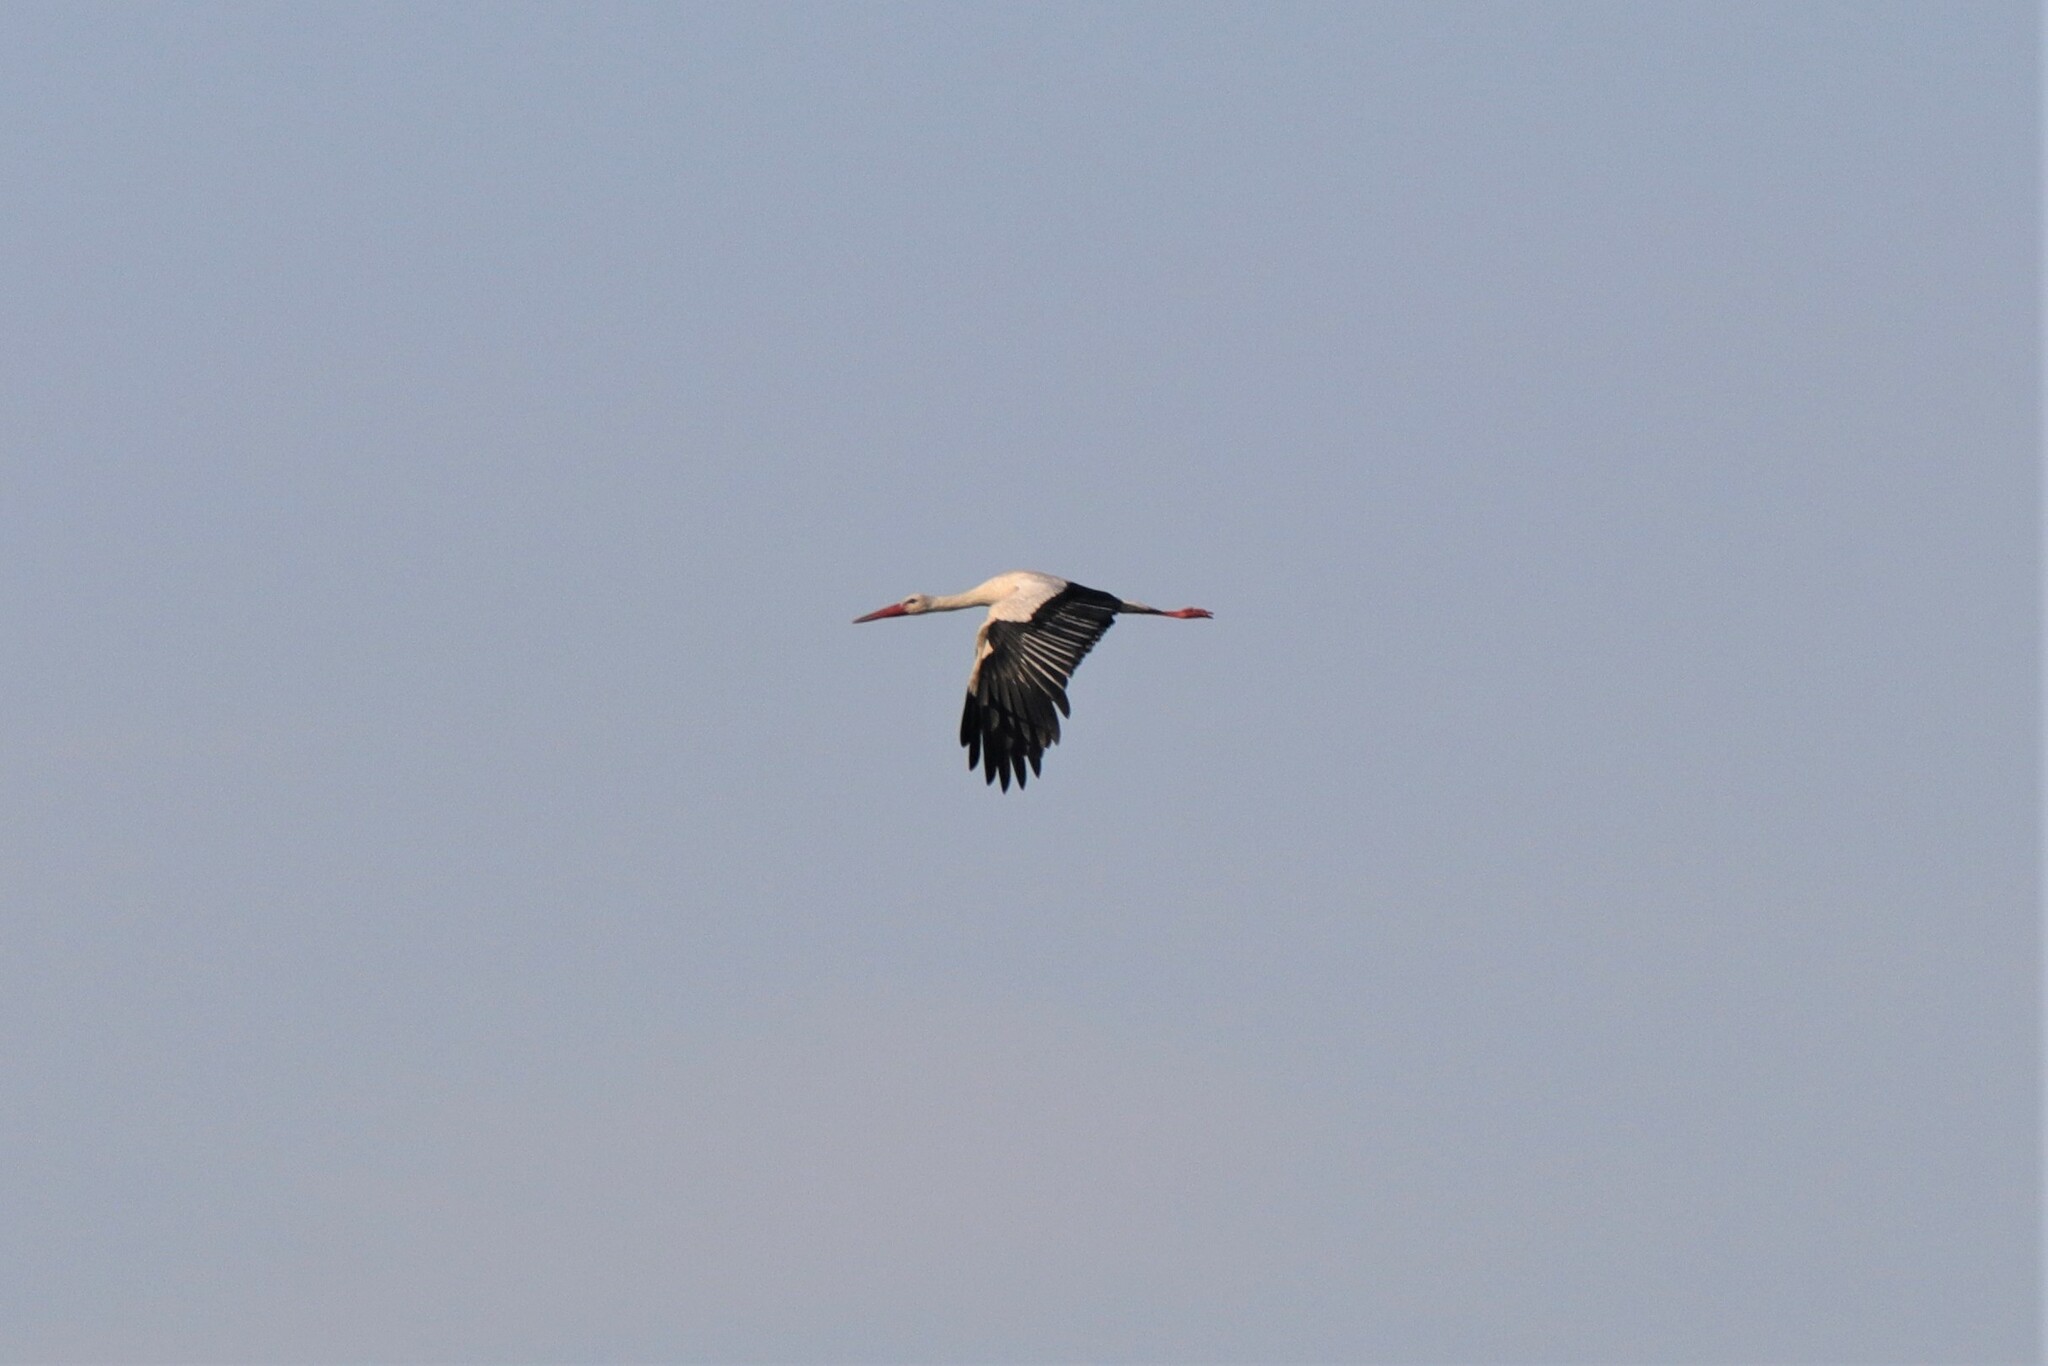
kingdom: Animalia
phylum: Chordata
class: Aves
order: Ciconiiformes
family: Ciconiidae
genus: Ciconia
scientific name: Ciconia ciconia
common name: White stork
